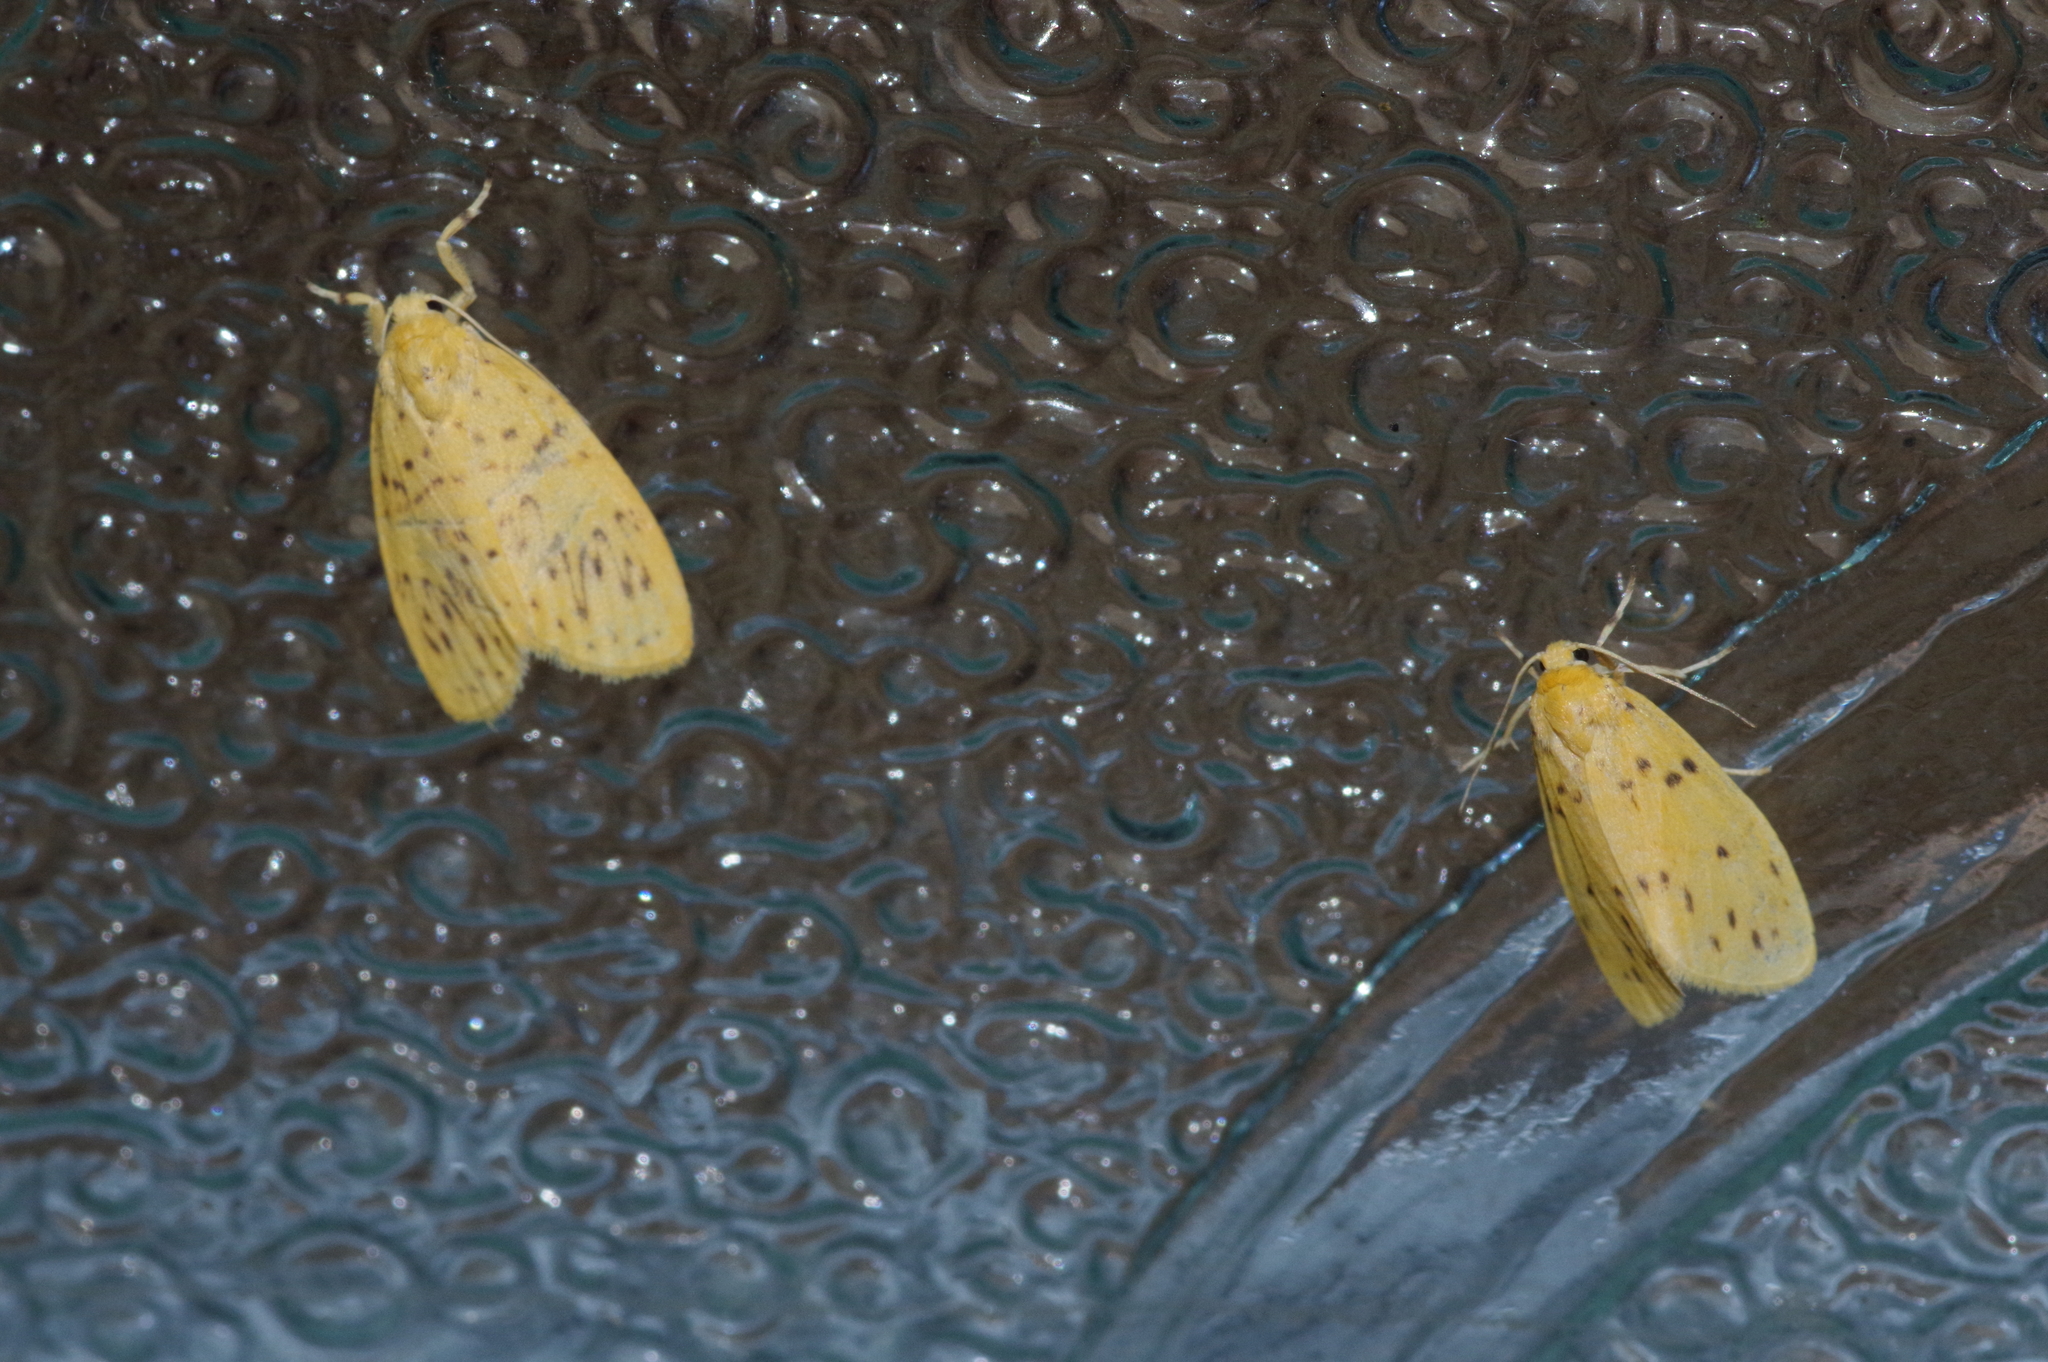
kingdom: Animalia
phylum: Arthropoda
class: Insecta
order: Lepidoptera
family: Erebidae
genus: Huangilene
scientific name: Huangilene alikangiae
